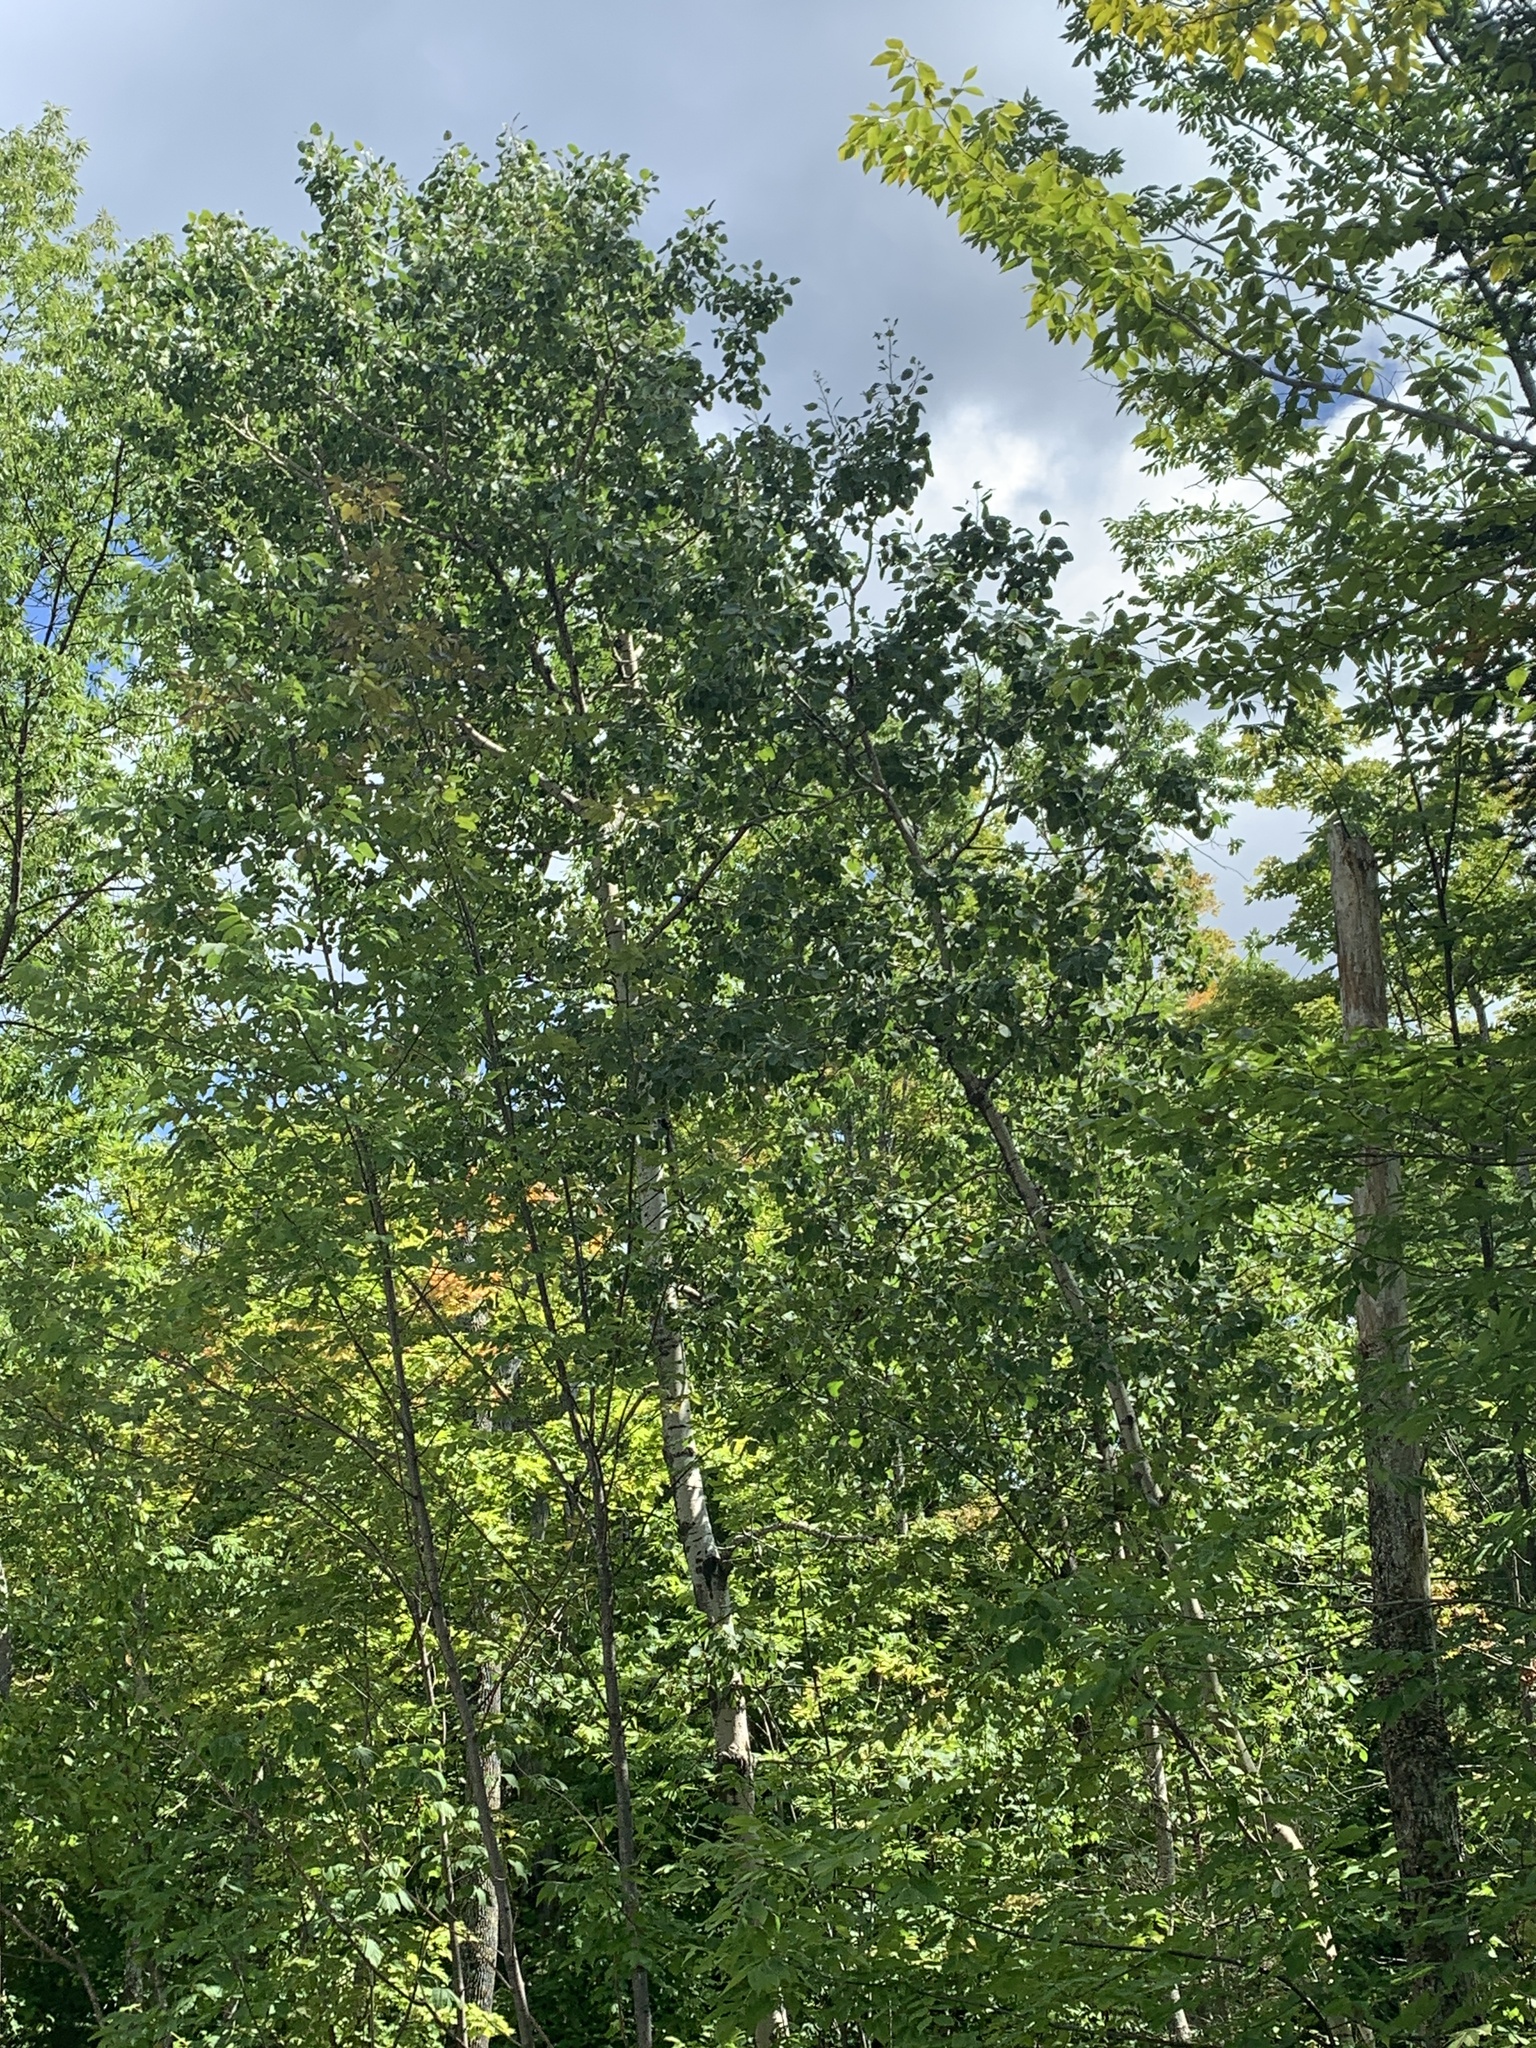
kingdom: Plantae
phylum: Tracheophyta
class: Magnoliopsida
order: Malpighiales
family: Salicaceae
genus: Populus
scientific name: Populus tremuloides
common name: Quaking aspen
